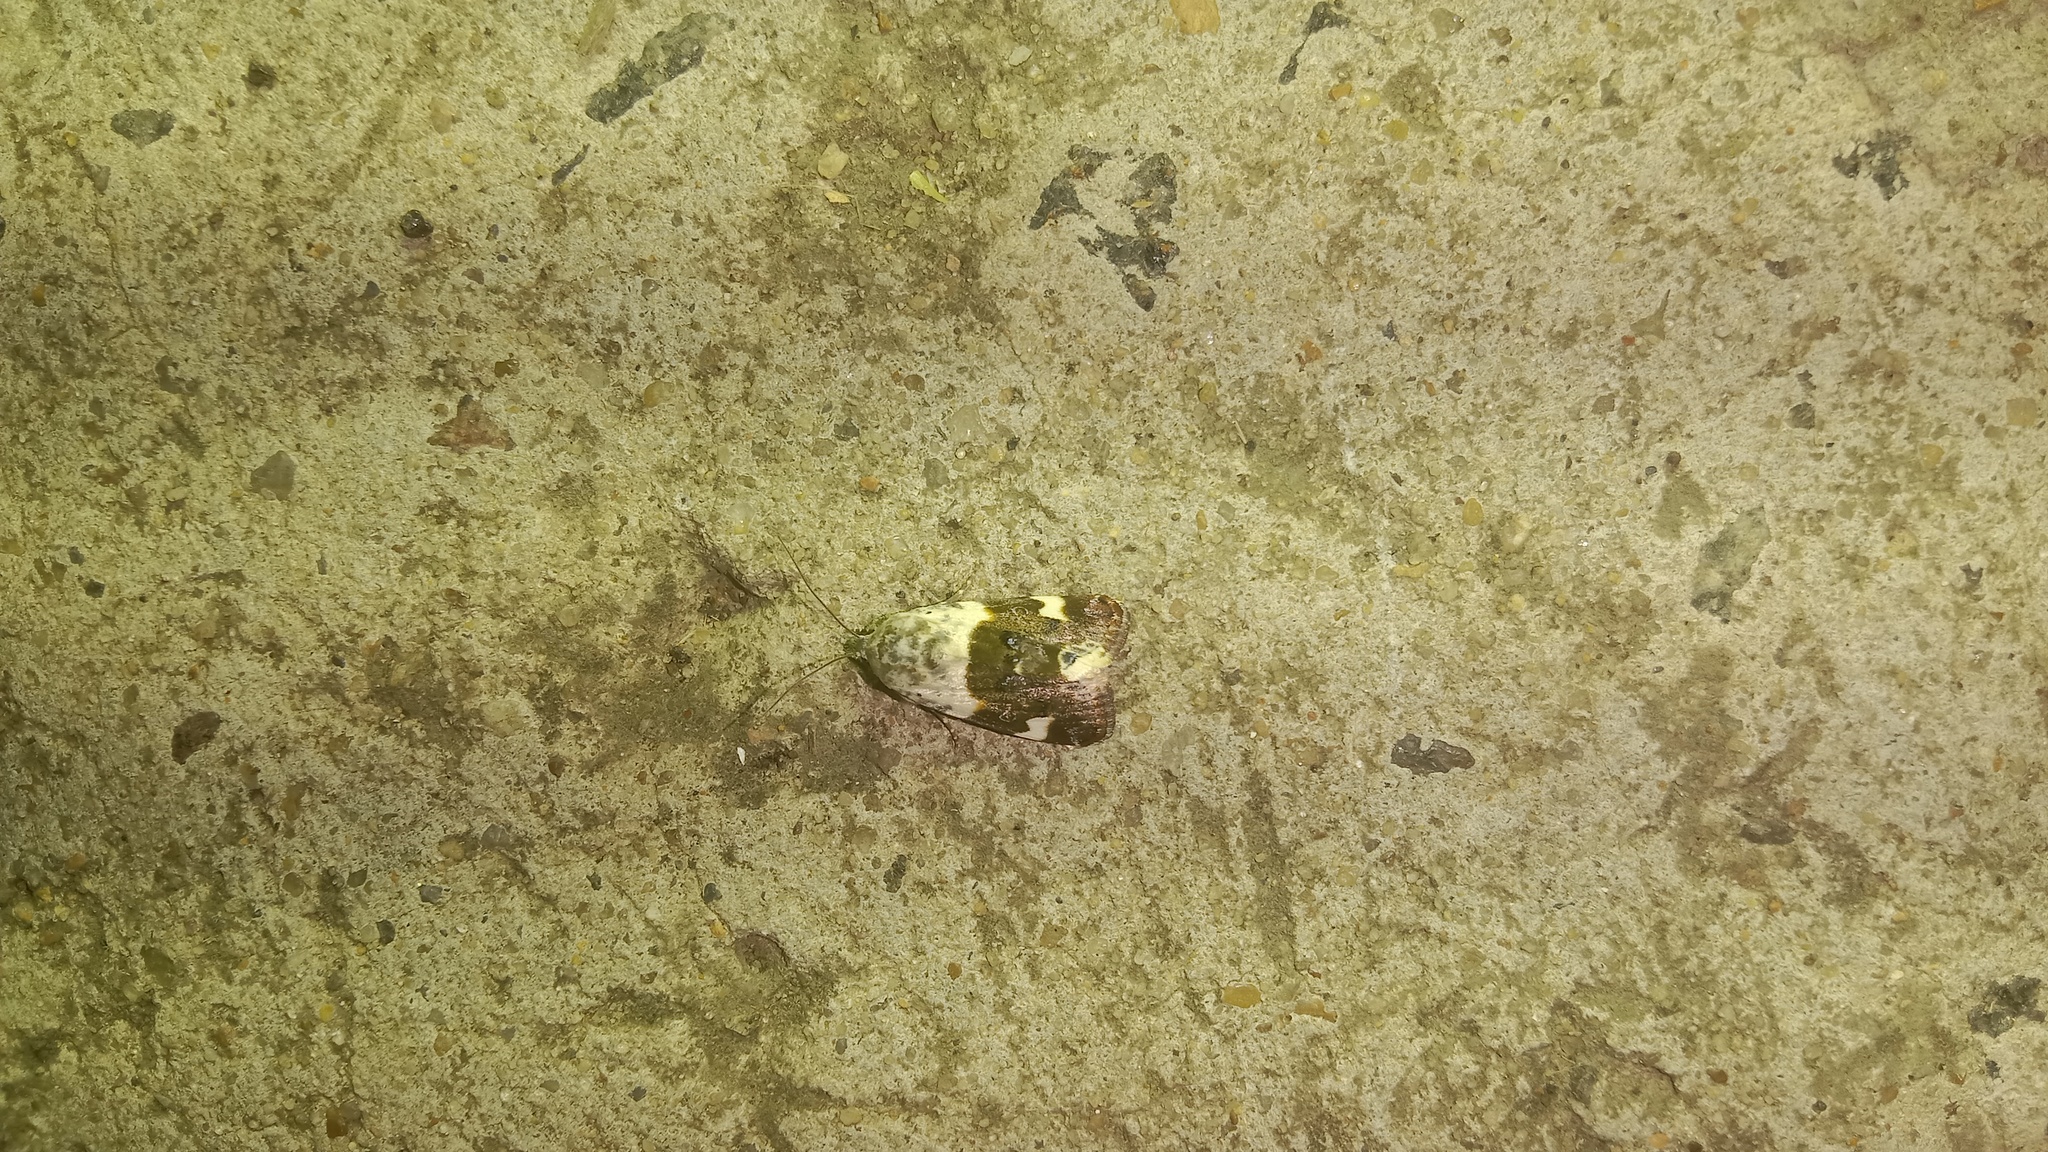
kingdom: Animalia
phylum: Arthropoda
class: Insecta
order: Lepidoptera
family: Noctuidae
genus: Acontia
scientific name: Acontia lucida
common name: Pale shoulder
